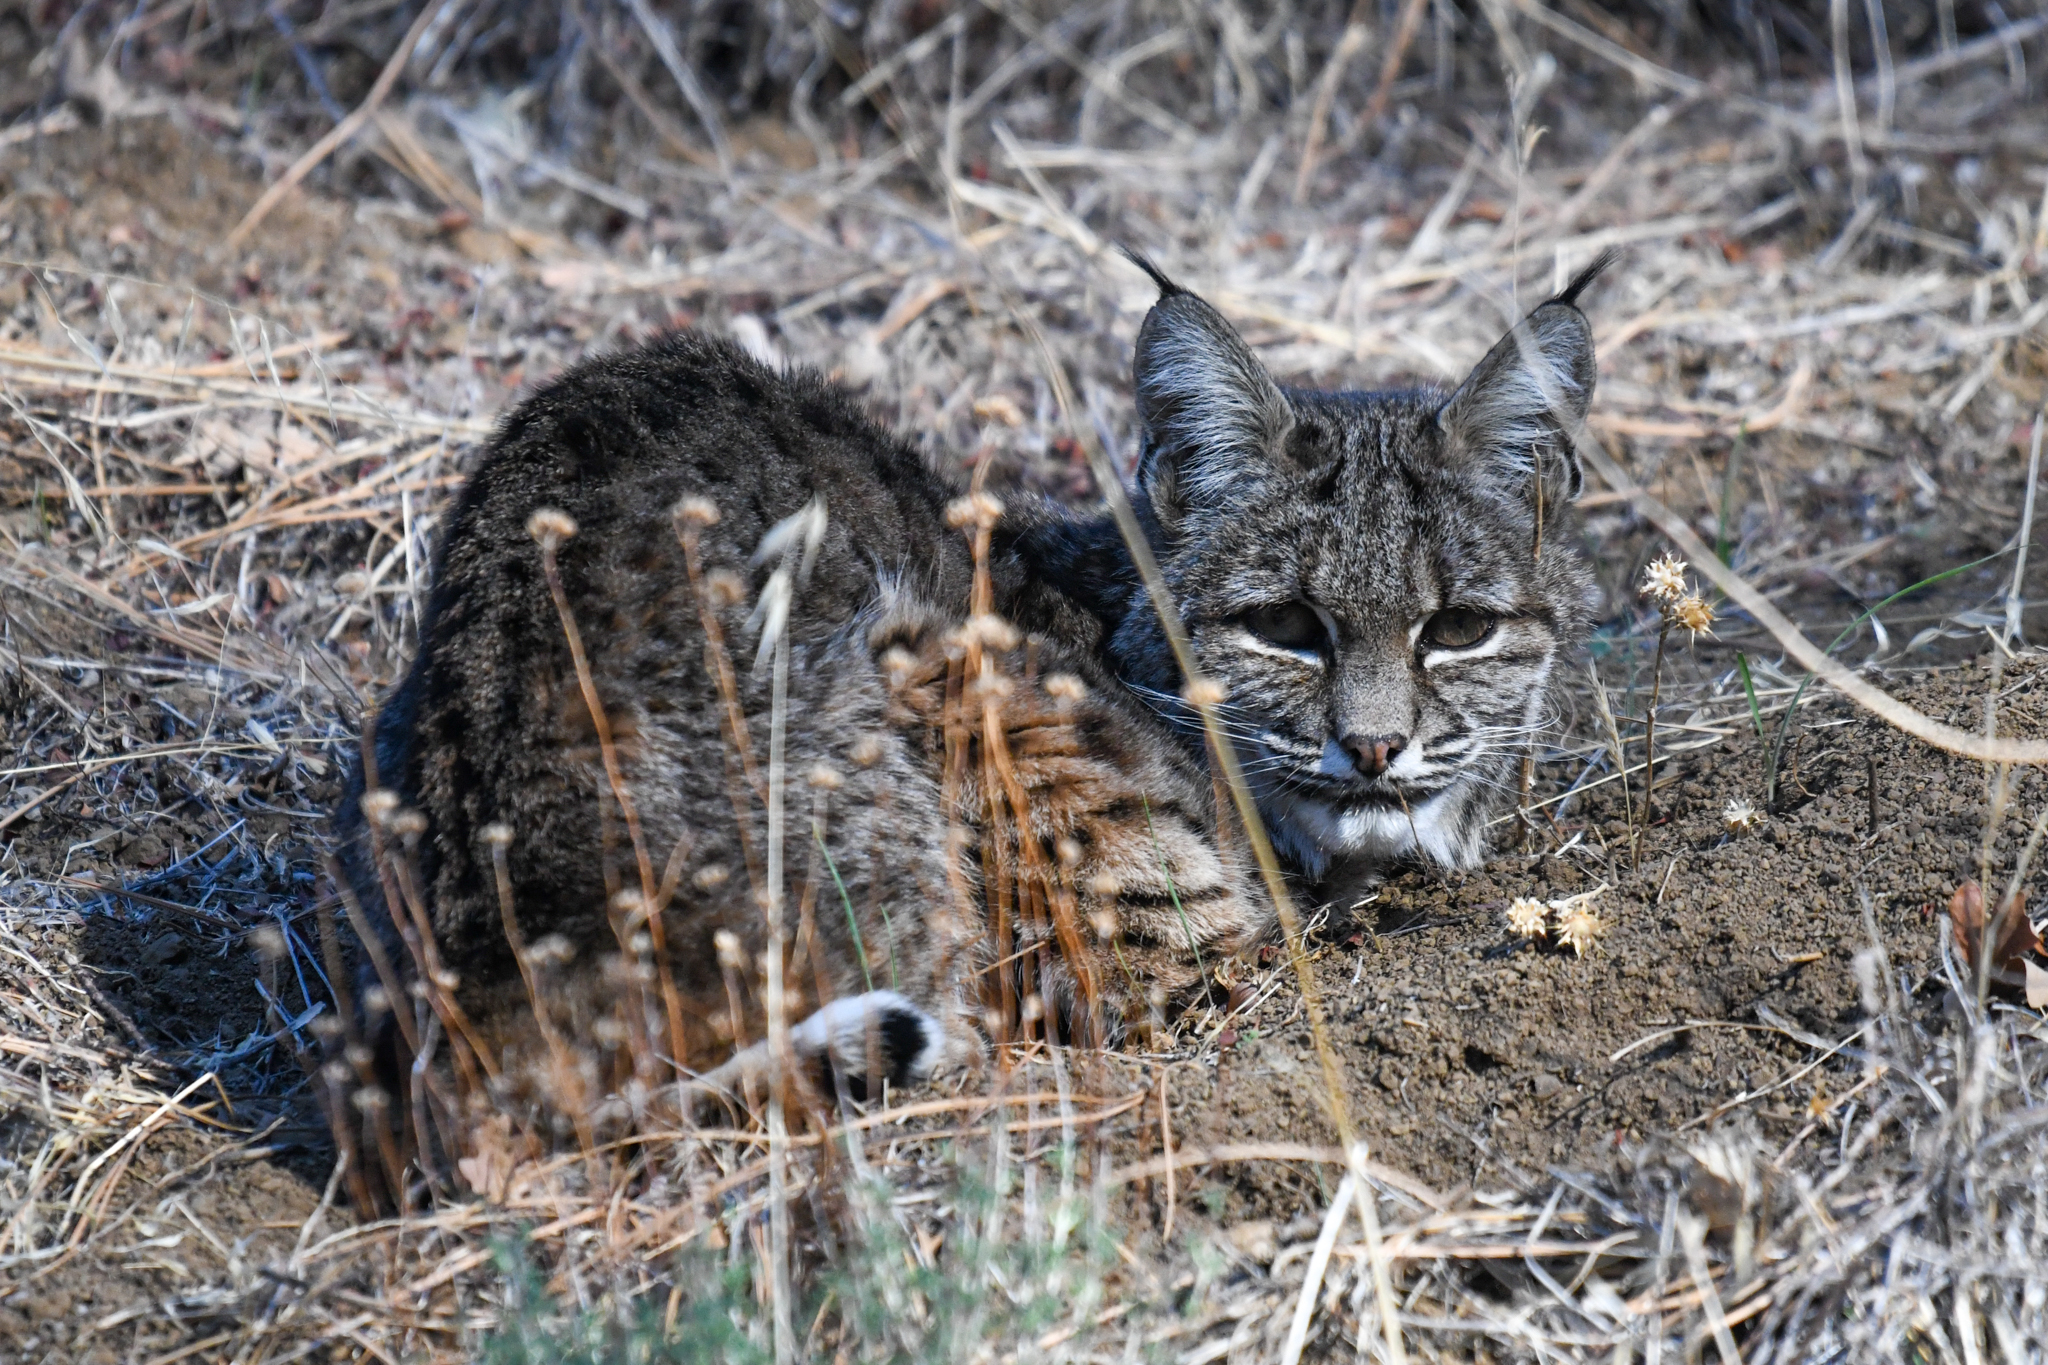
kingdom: Animalia
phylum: Chordata
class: Mammalia
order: Carnivora
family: Felidae
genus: Lynx
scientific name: Lynx rufus
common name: Bobcat
